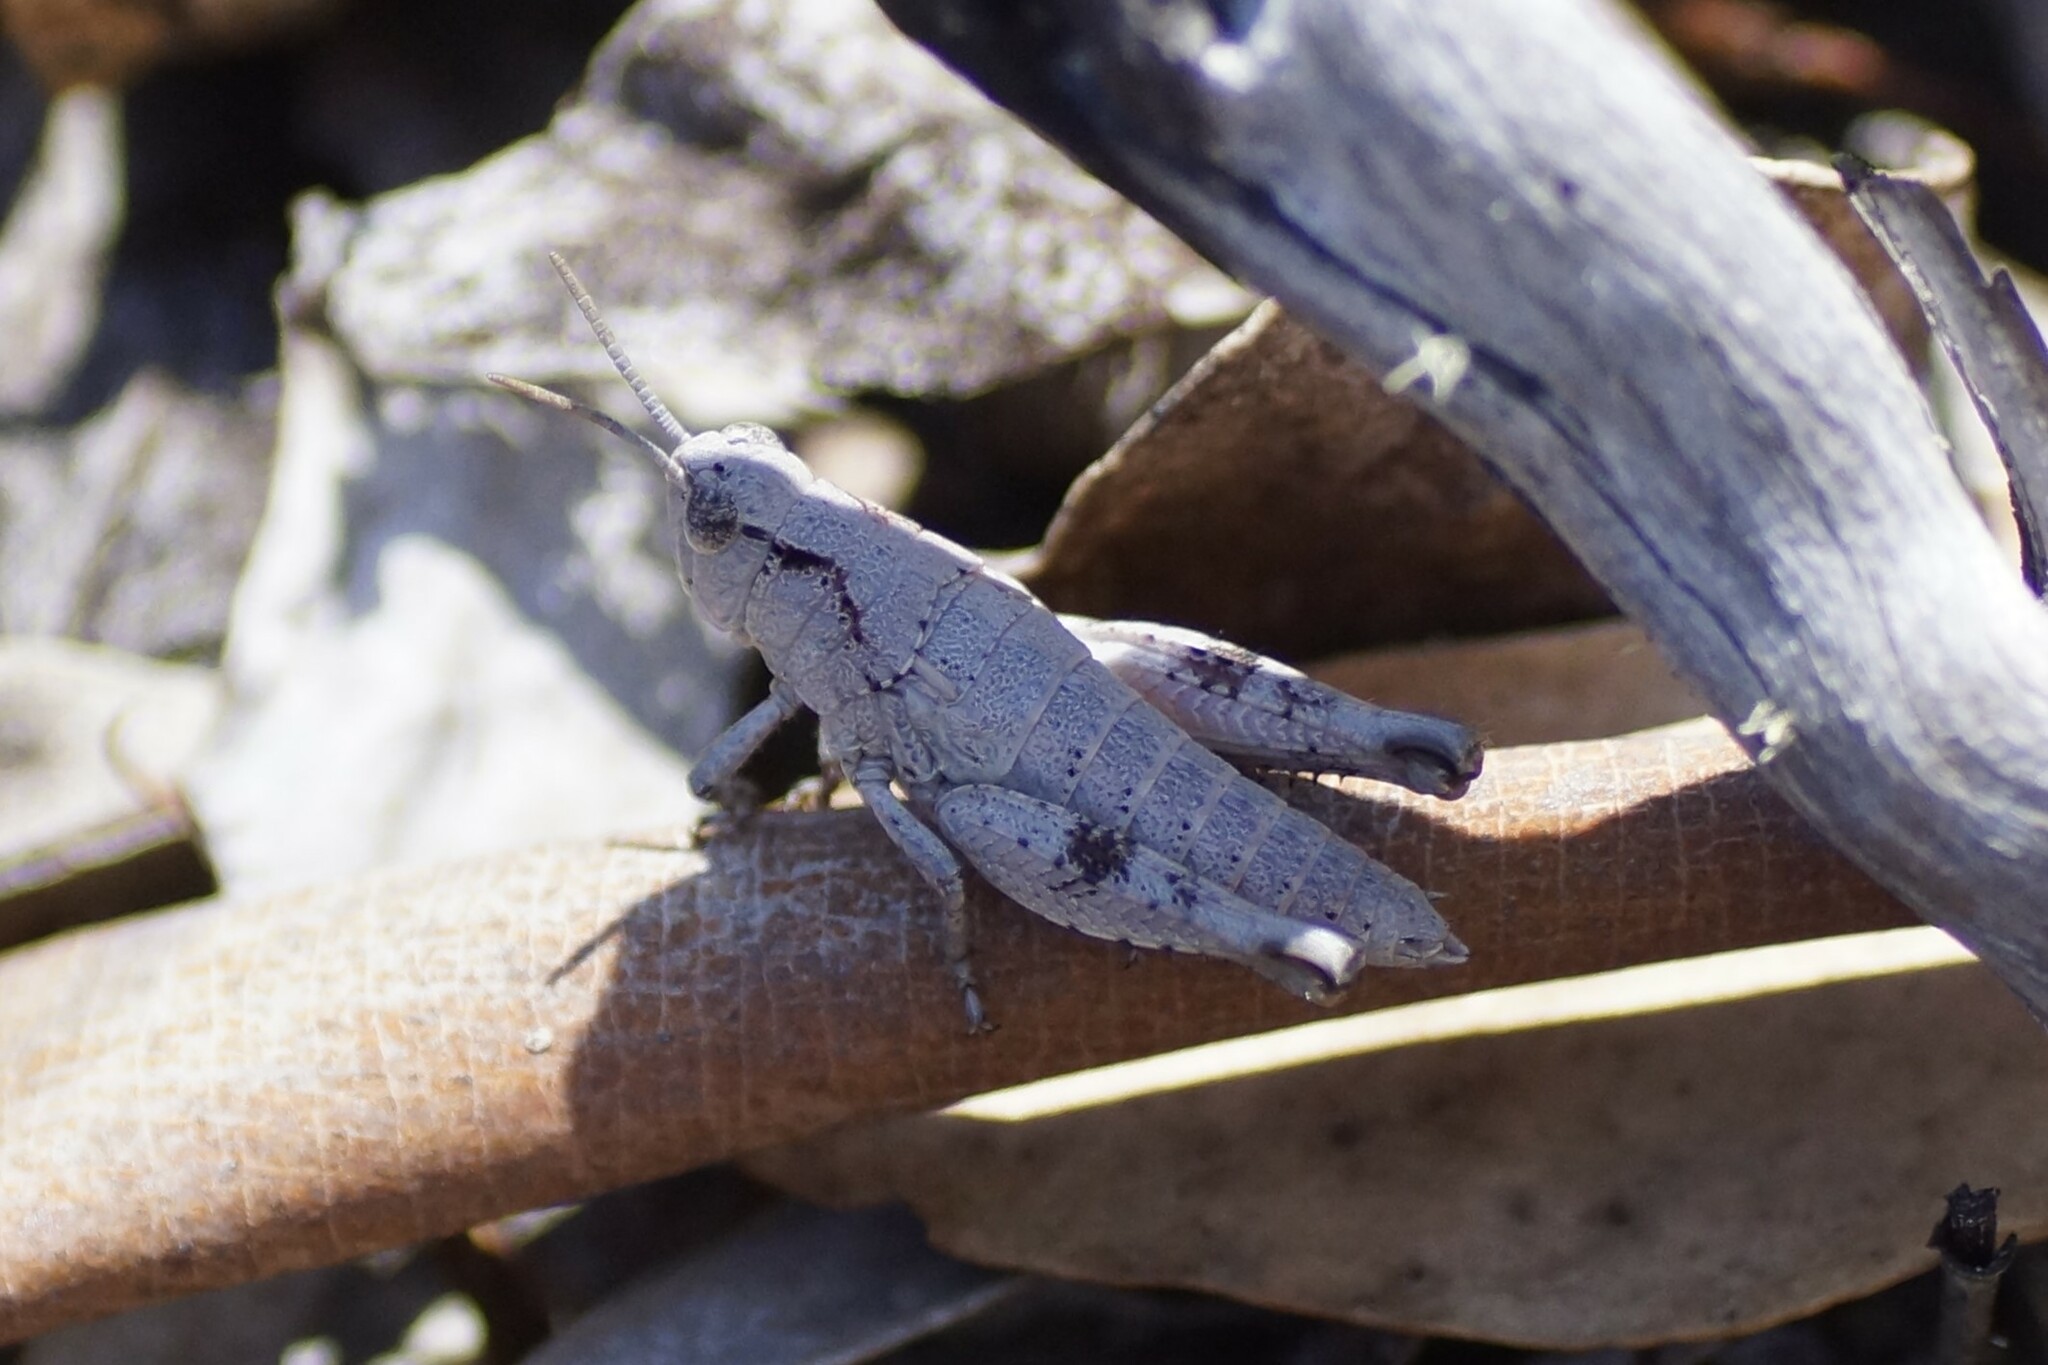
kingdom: Animalia
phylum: Arthropoda
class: Insecta
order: Orthoptera
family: Acrididae
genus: Tasmaniacris
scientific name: Tasmaniacris tasmaniensis
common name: Tasmanian grasshopper
